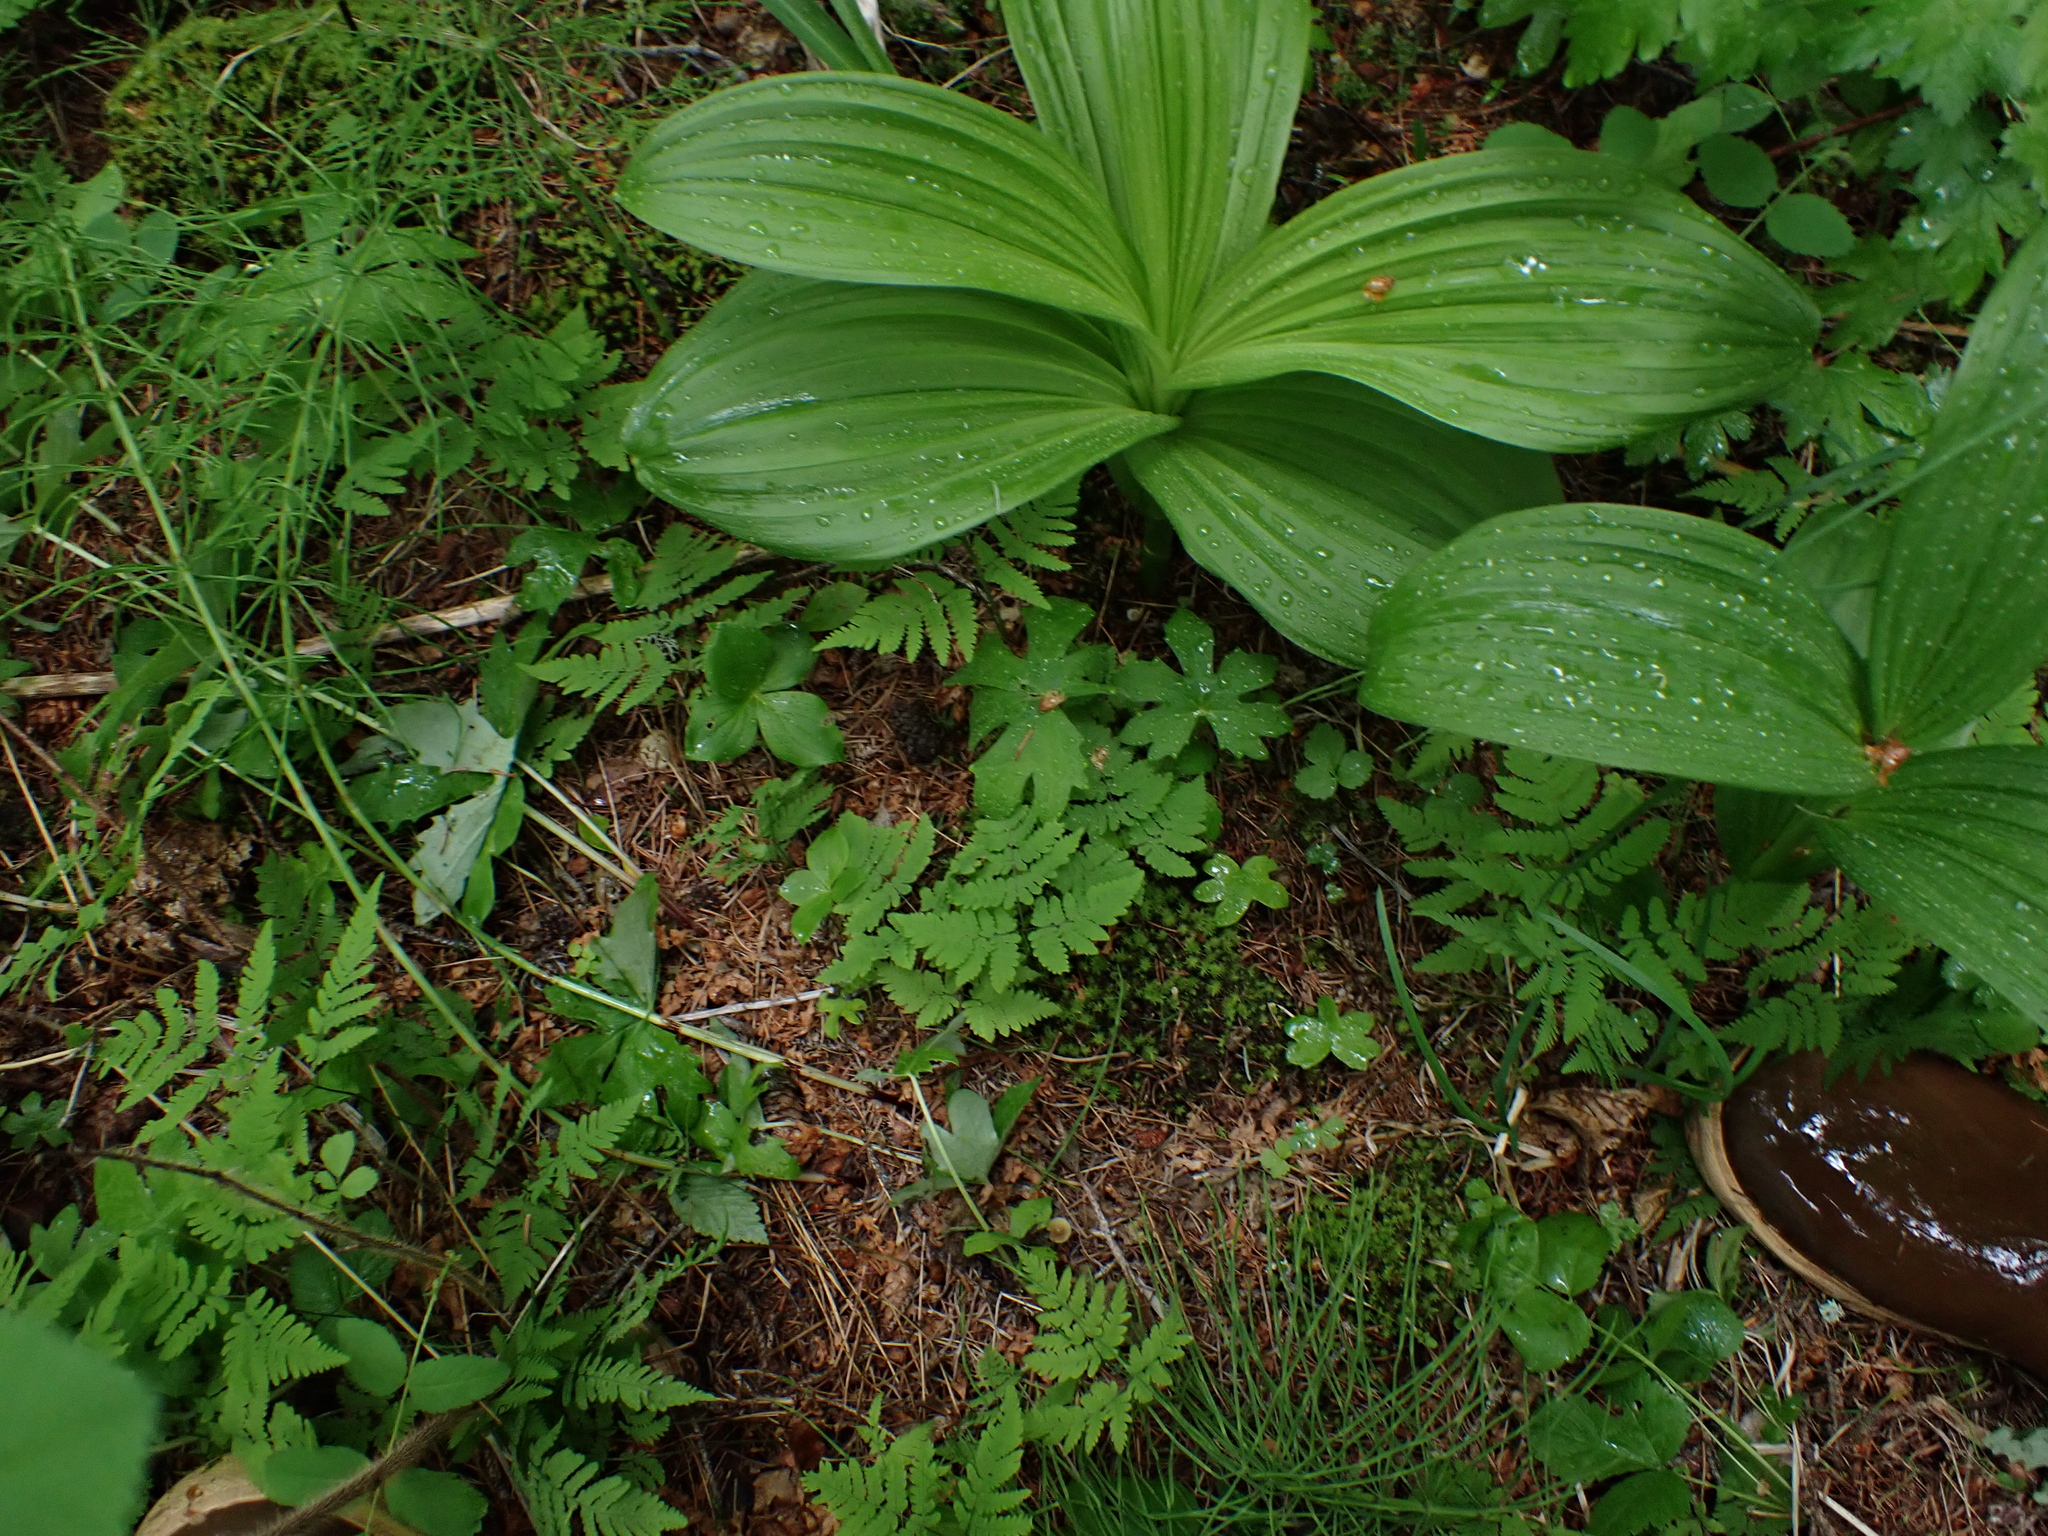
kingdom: Plantae
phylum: Tracheophyta
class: Liliopsida
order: Liliales
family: Melanthiaceae
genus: Veratrum
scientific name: Veratrum viride
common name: American false hellebore
